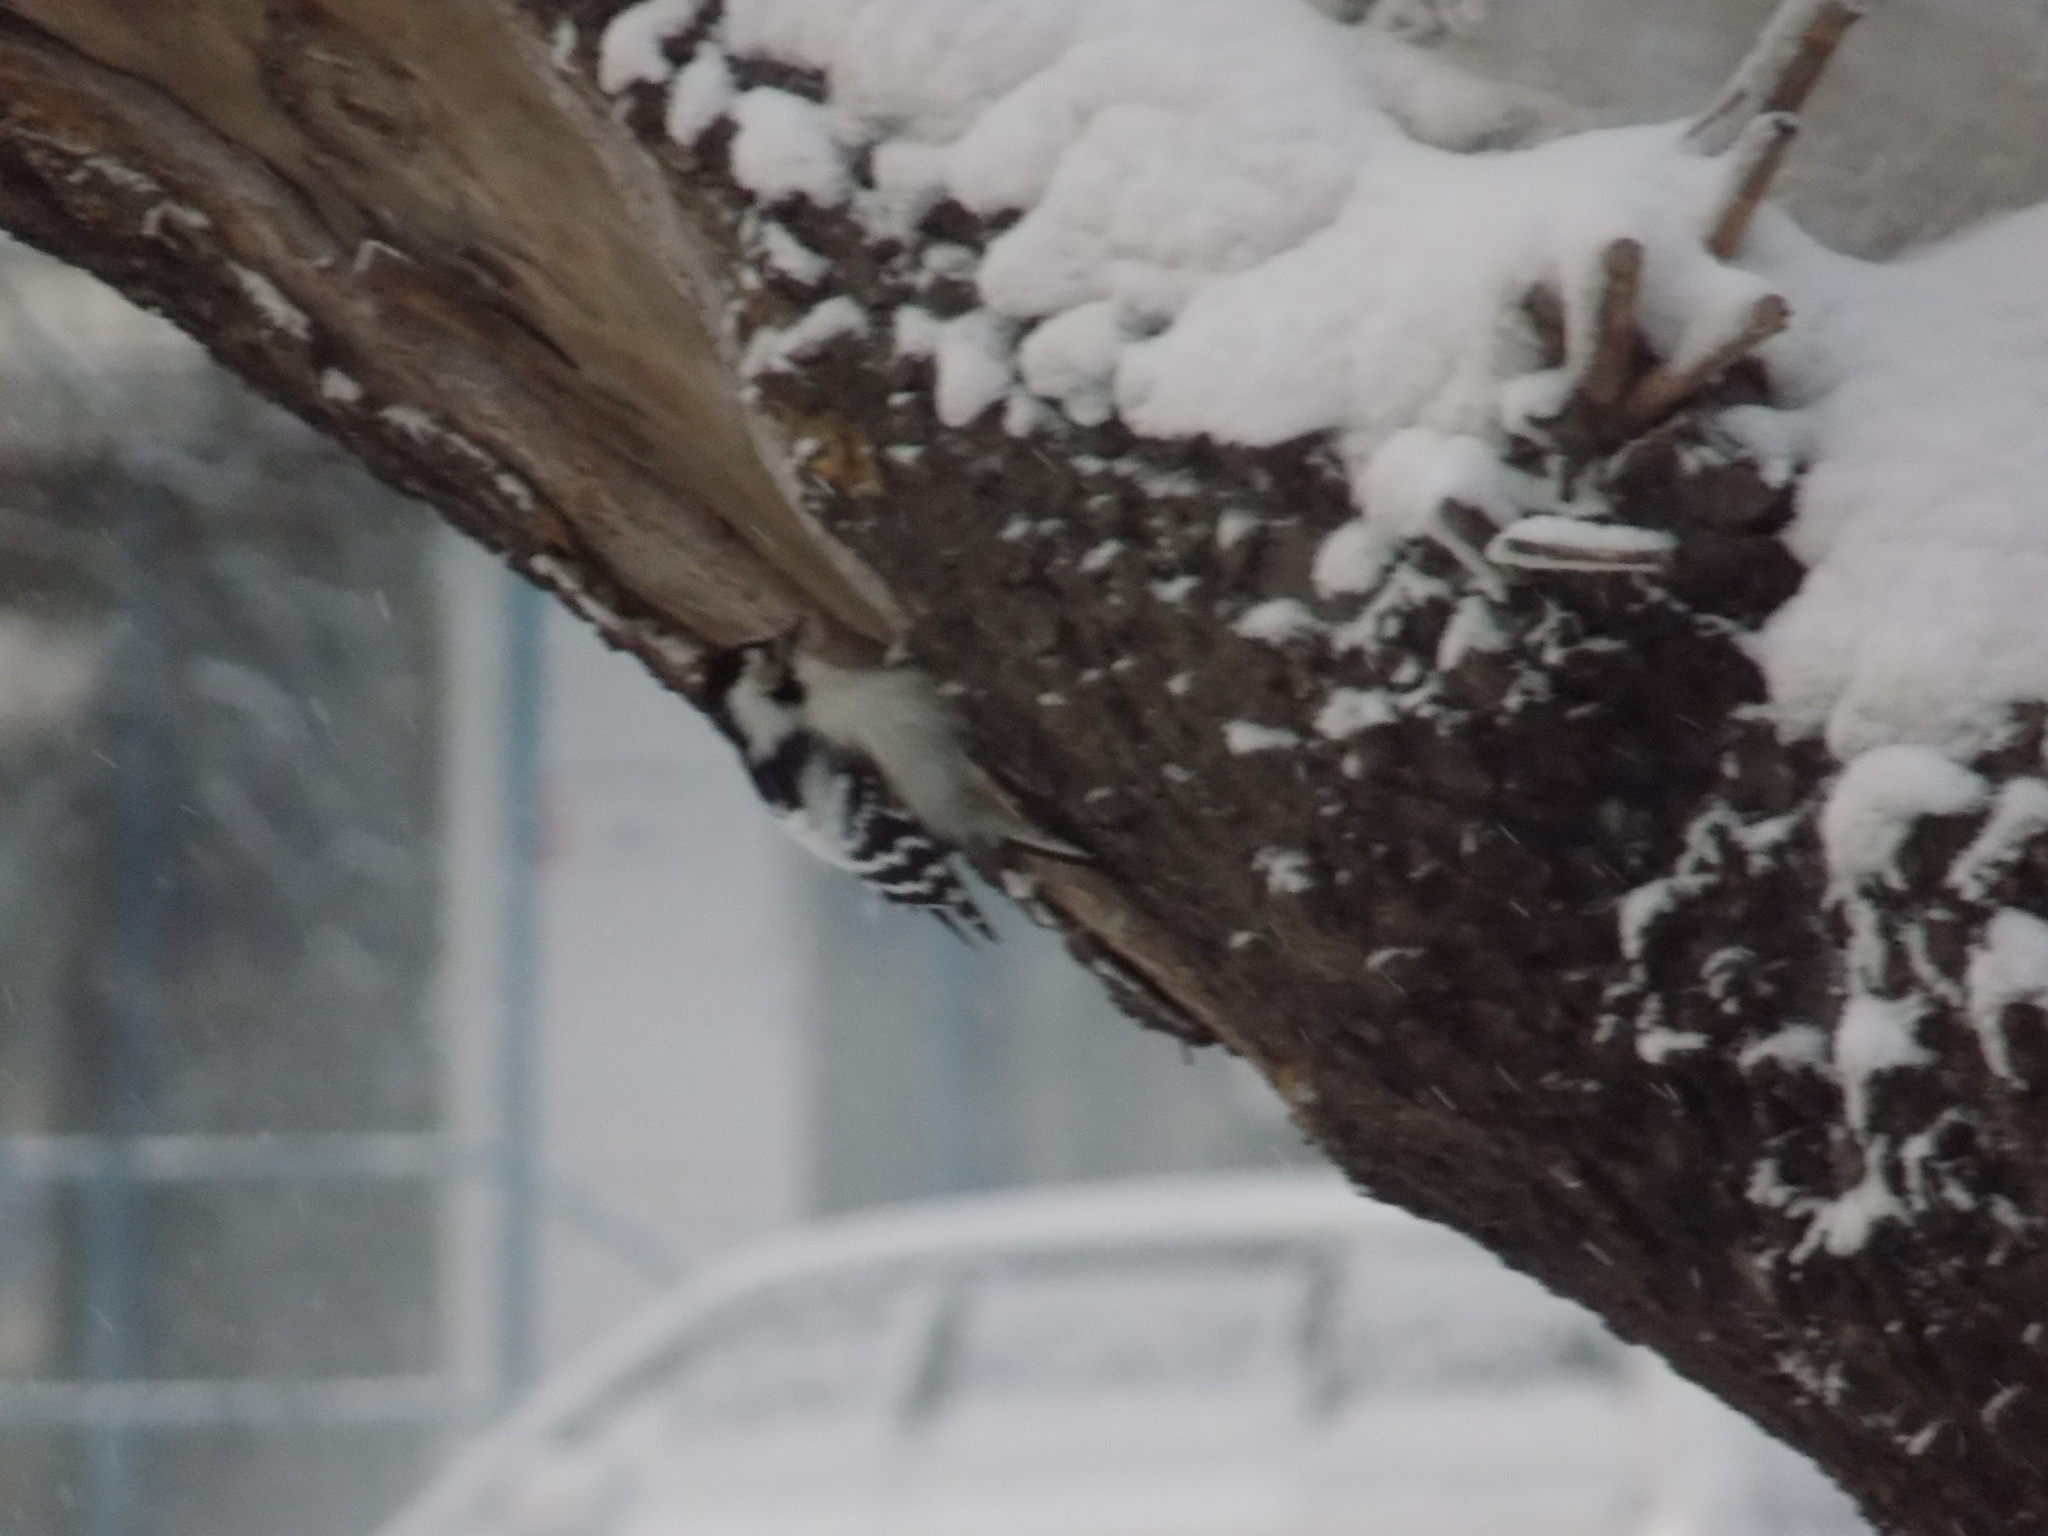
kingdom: Animalia
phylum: Chordata
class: Aves
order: Piciformes
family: Picidae
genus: Dryobates
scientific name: Dryobates minor
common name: Lesser spotted woodpecker
